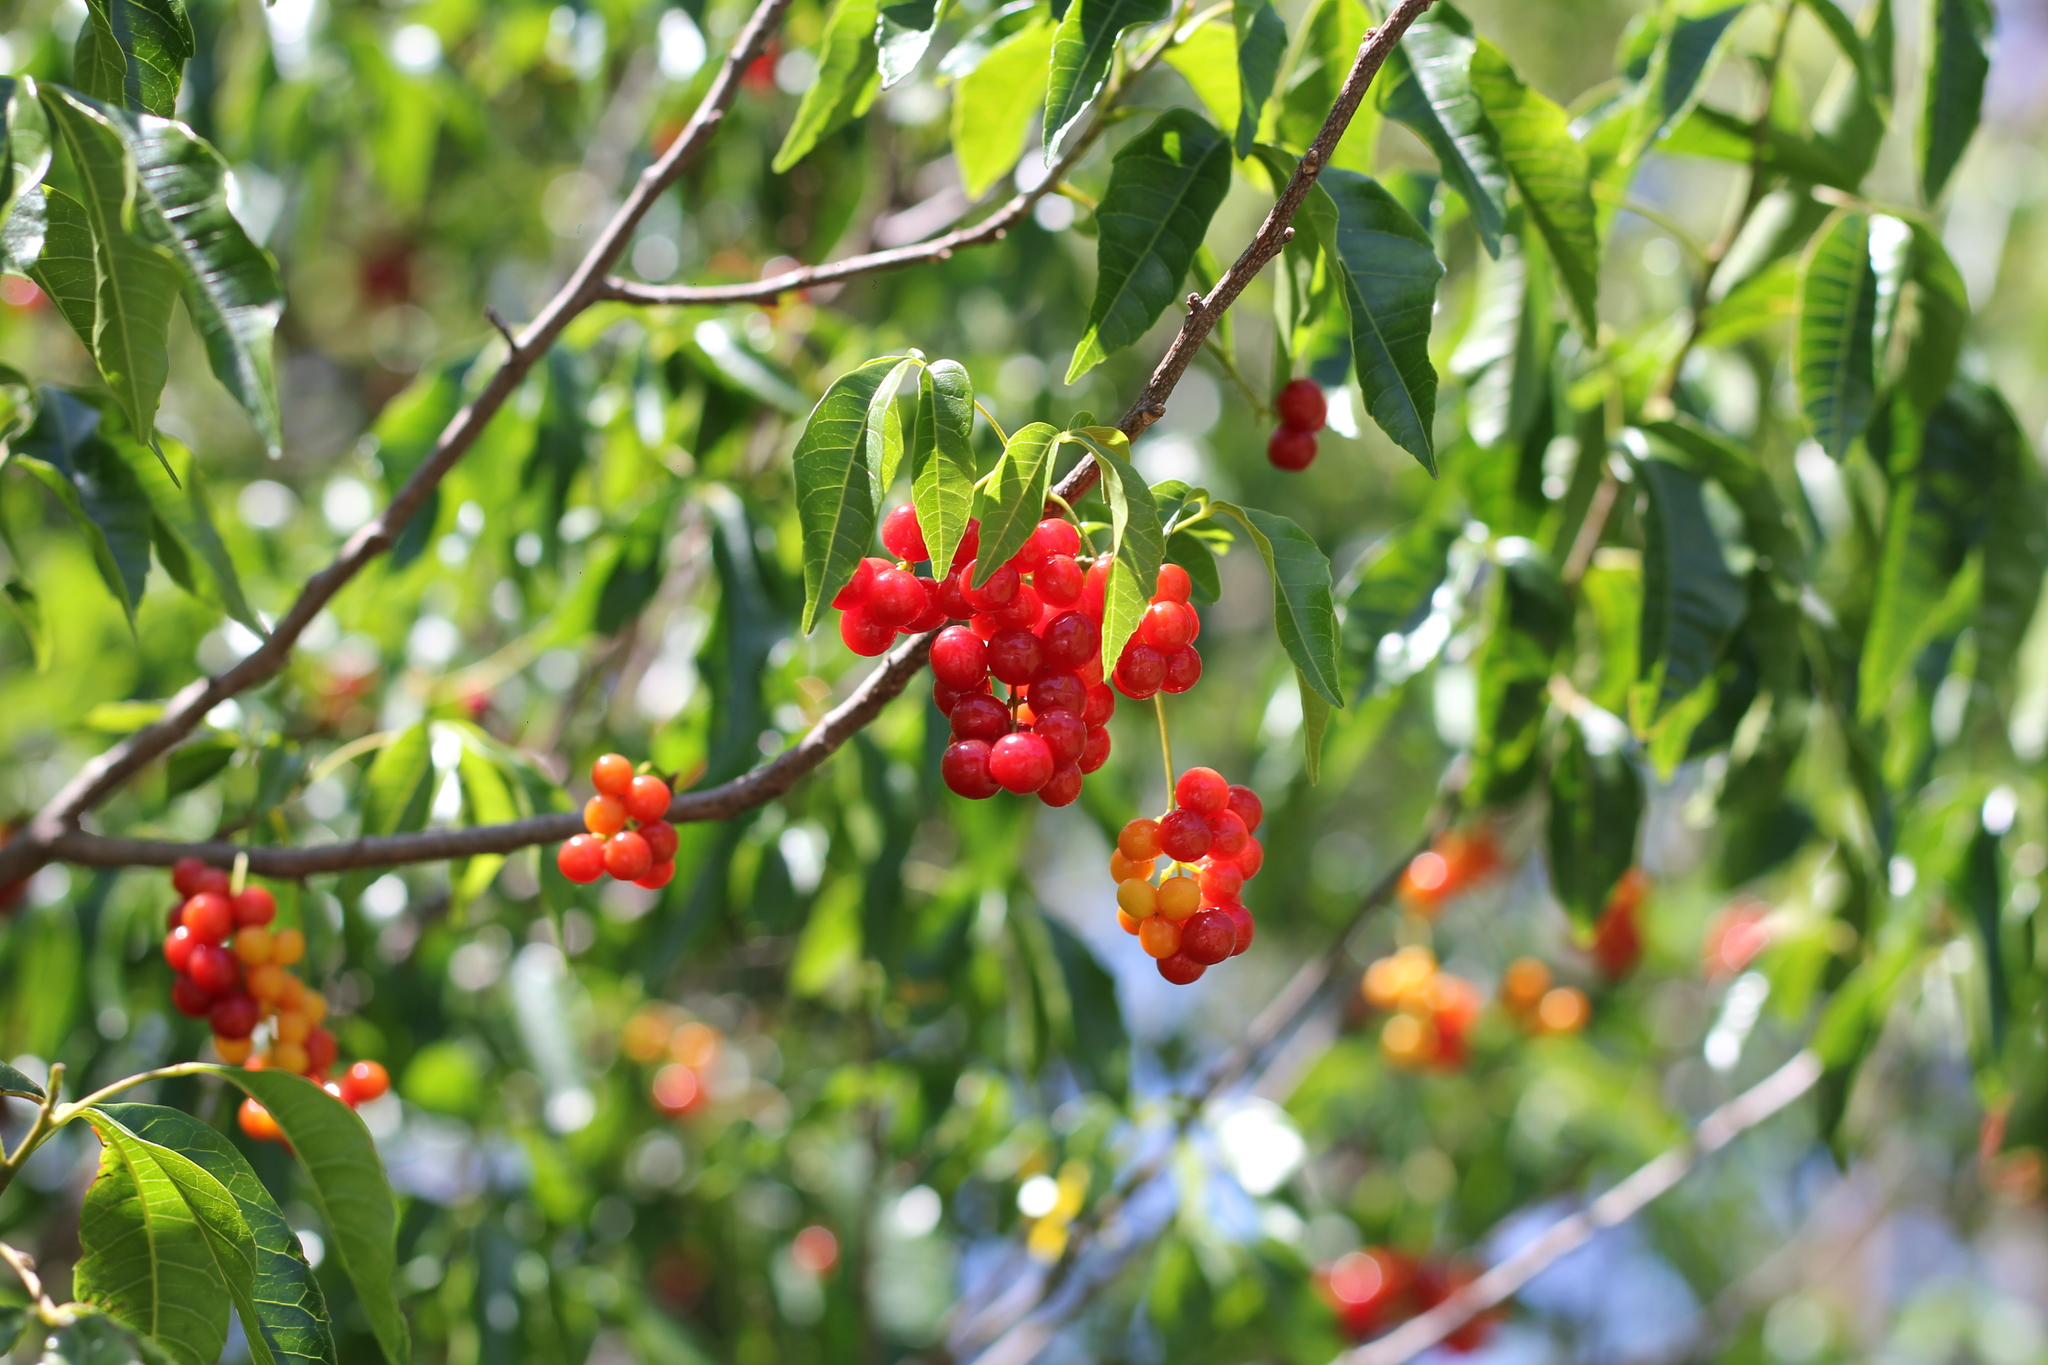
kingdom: Plantae
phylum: Tracheophyta
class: Magnoliopsida
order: Sapindales
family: Sapindaceae
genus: Allophylus
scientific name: Allophylus edulis
